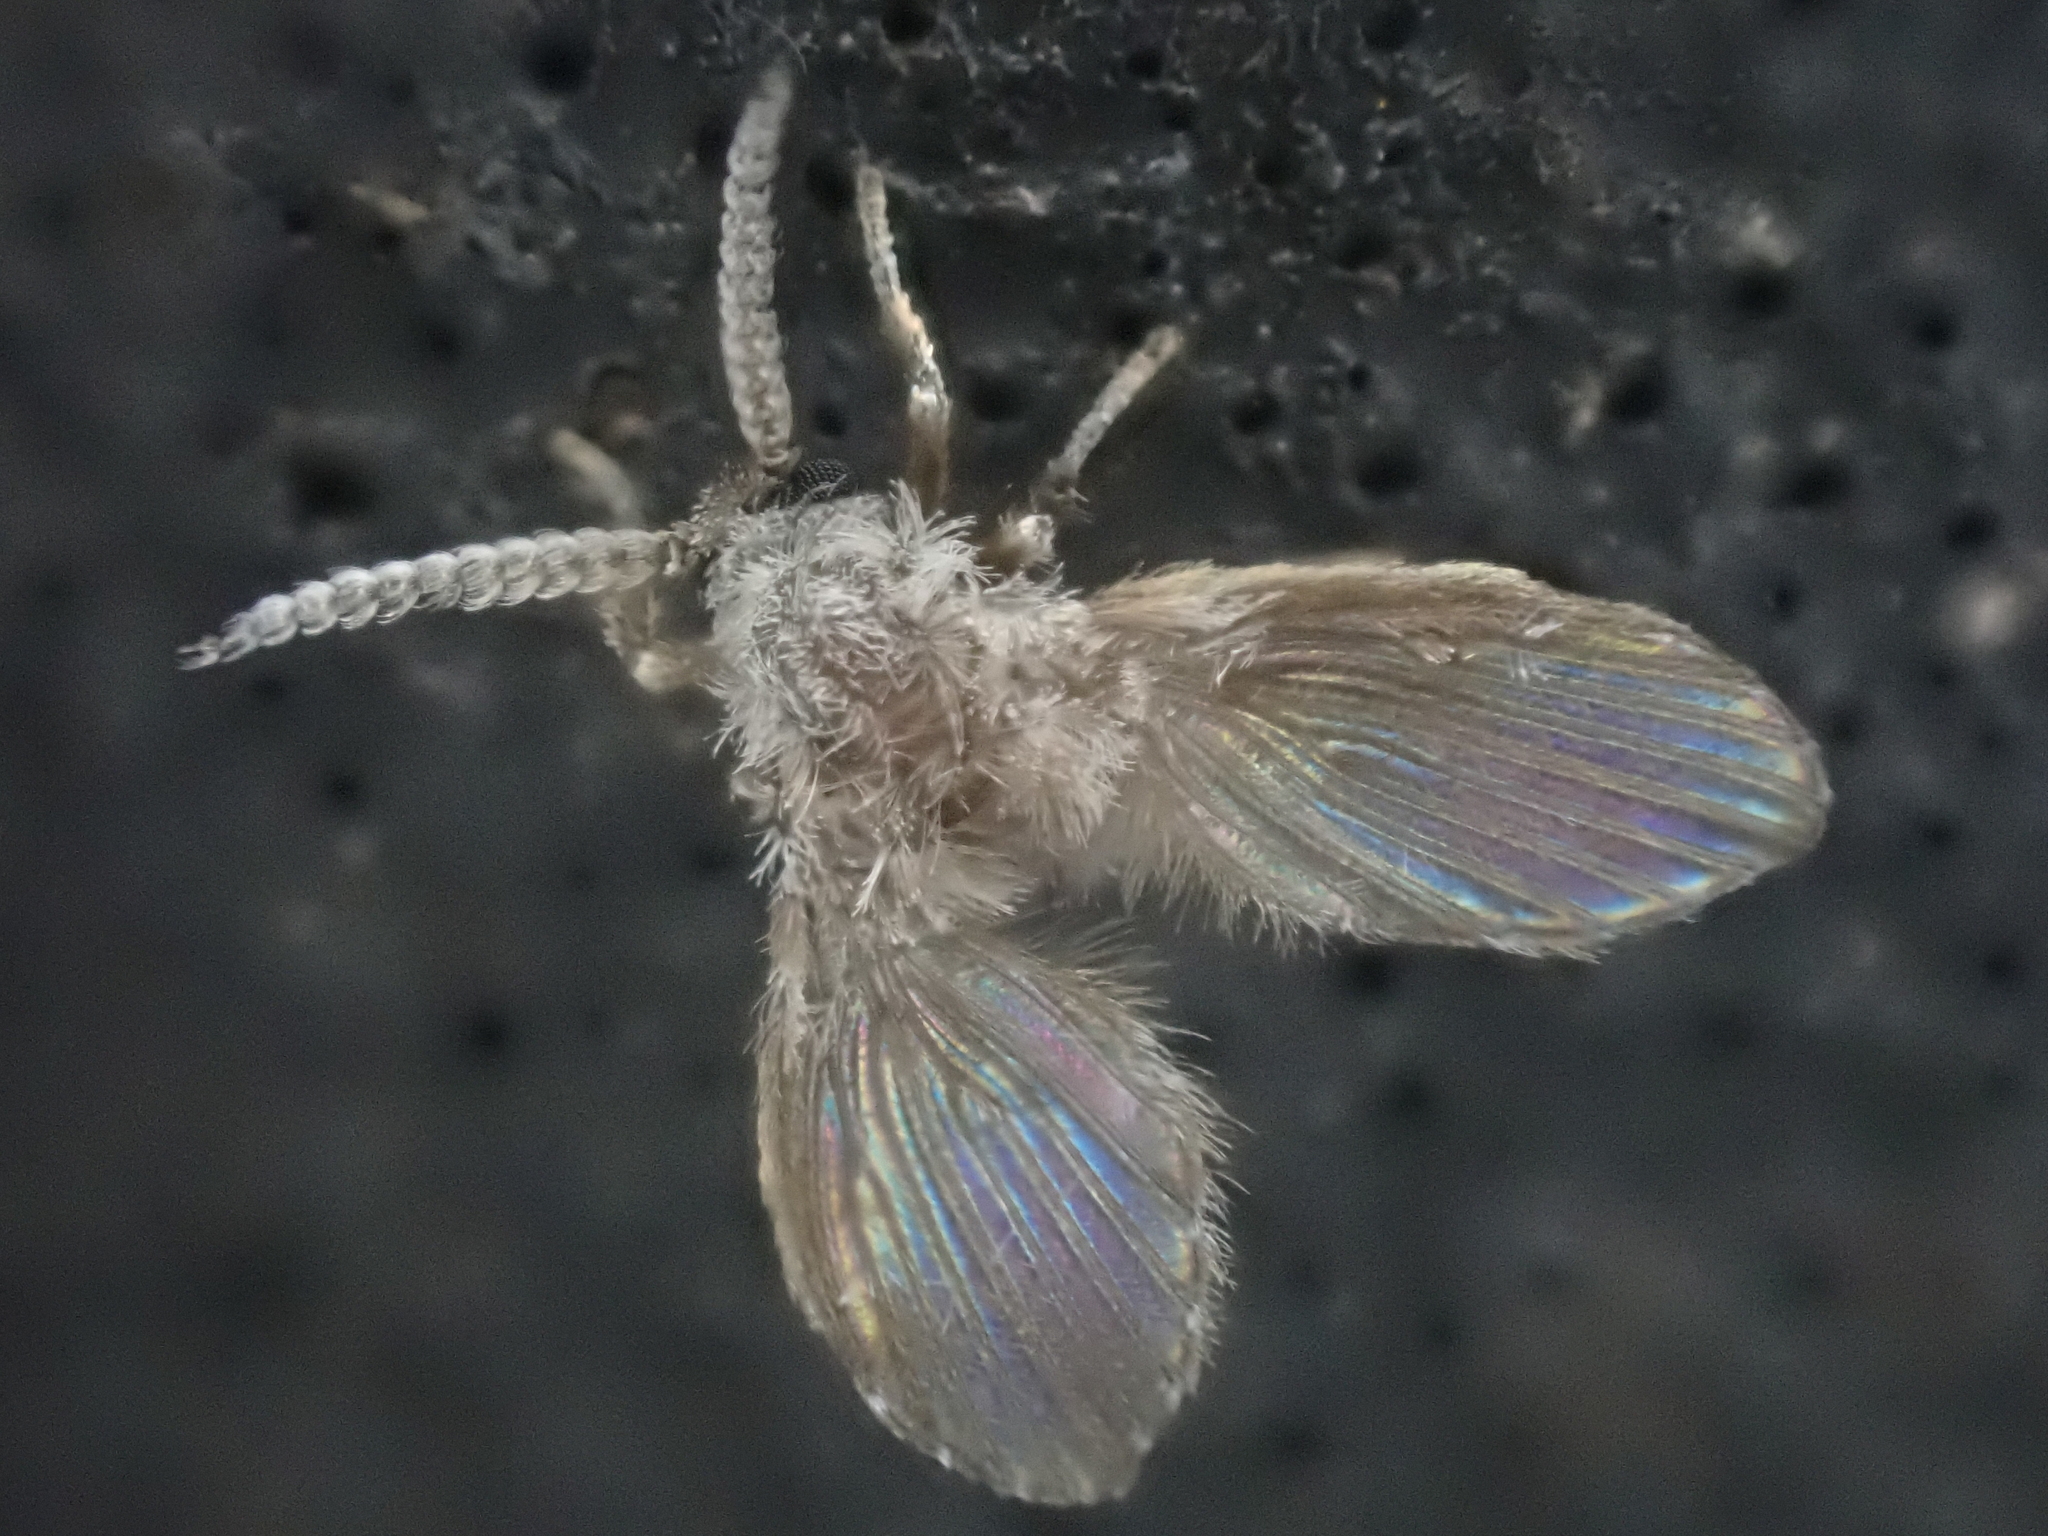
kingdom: Animalia
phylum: Arthropoda
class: Insecta
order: Diptera
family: Psychodidae
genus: Clogmia
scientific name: Clogmia albipunctatus
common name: White-spotted moth fly
